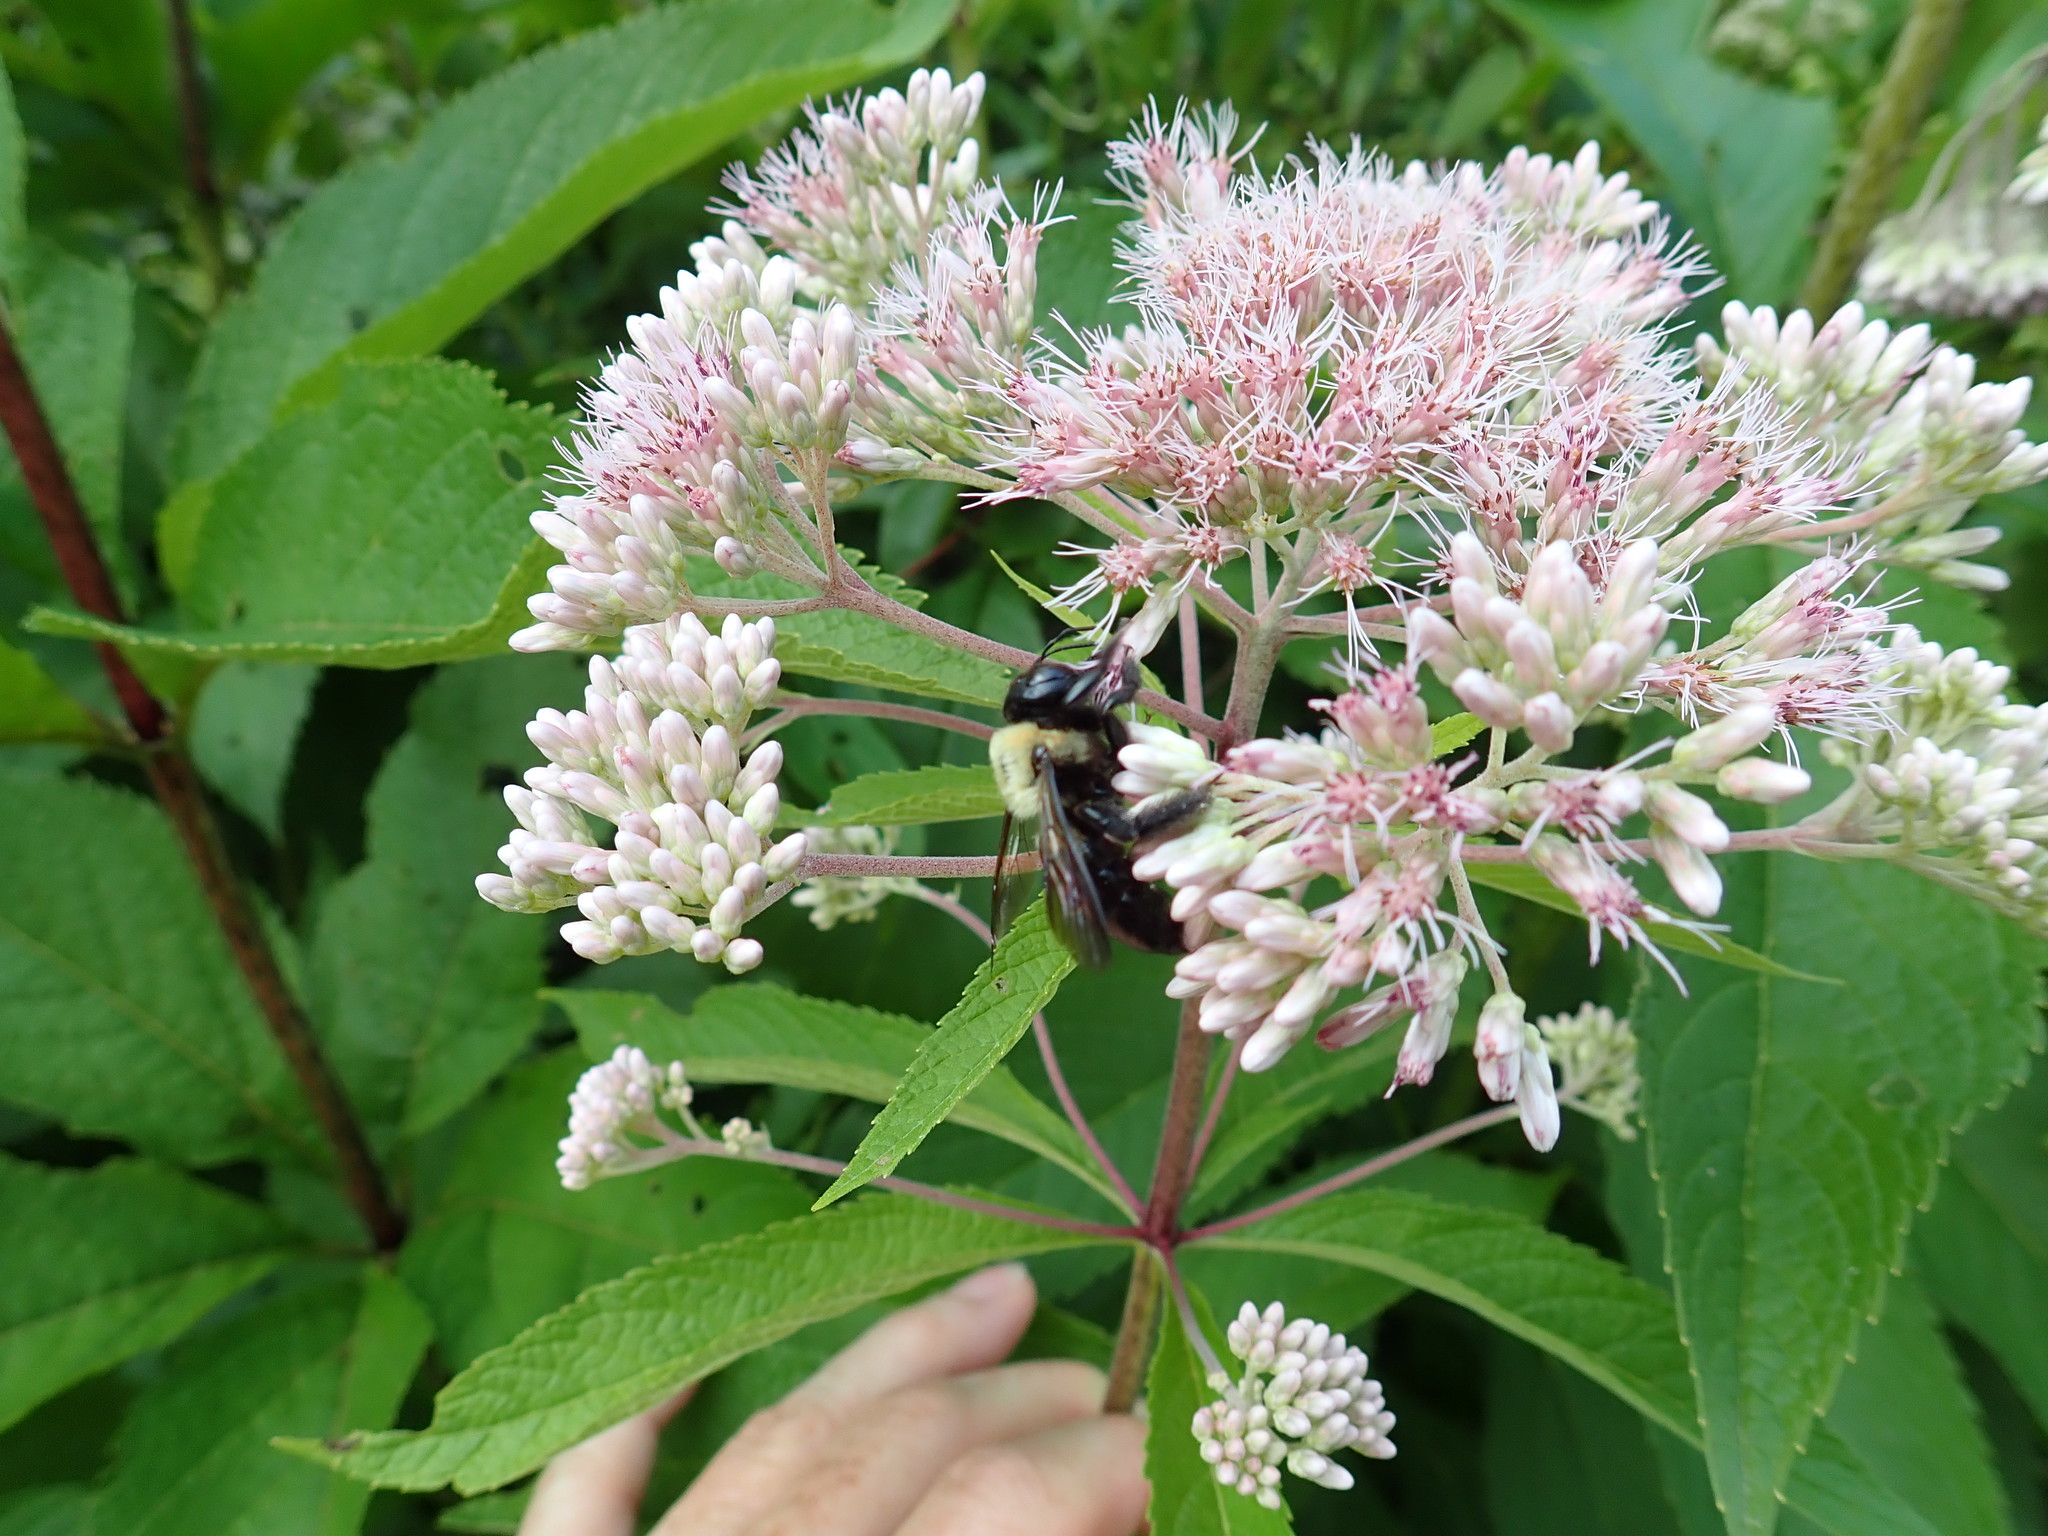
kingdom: Animalia
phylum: Arthropoda
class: Insecta
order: Hymenoptera
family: Apidae
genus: Xylocopa
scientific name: Xylocopa virginica
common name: Carpenter bee
